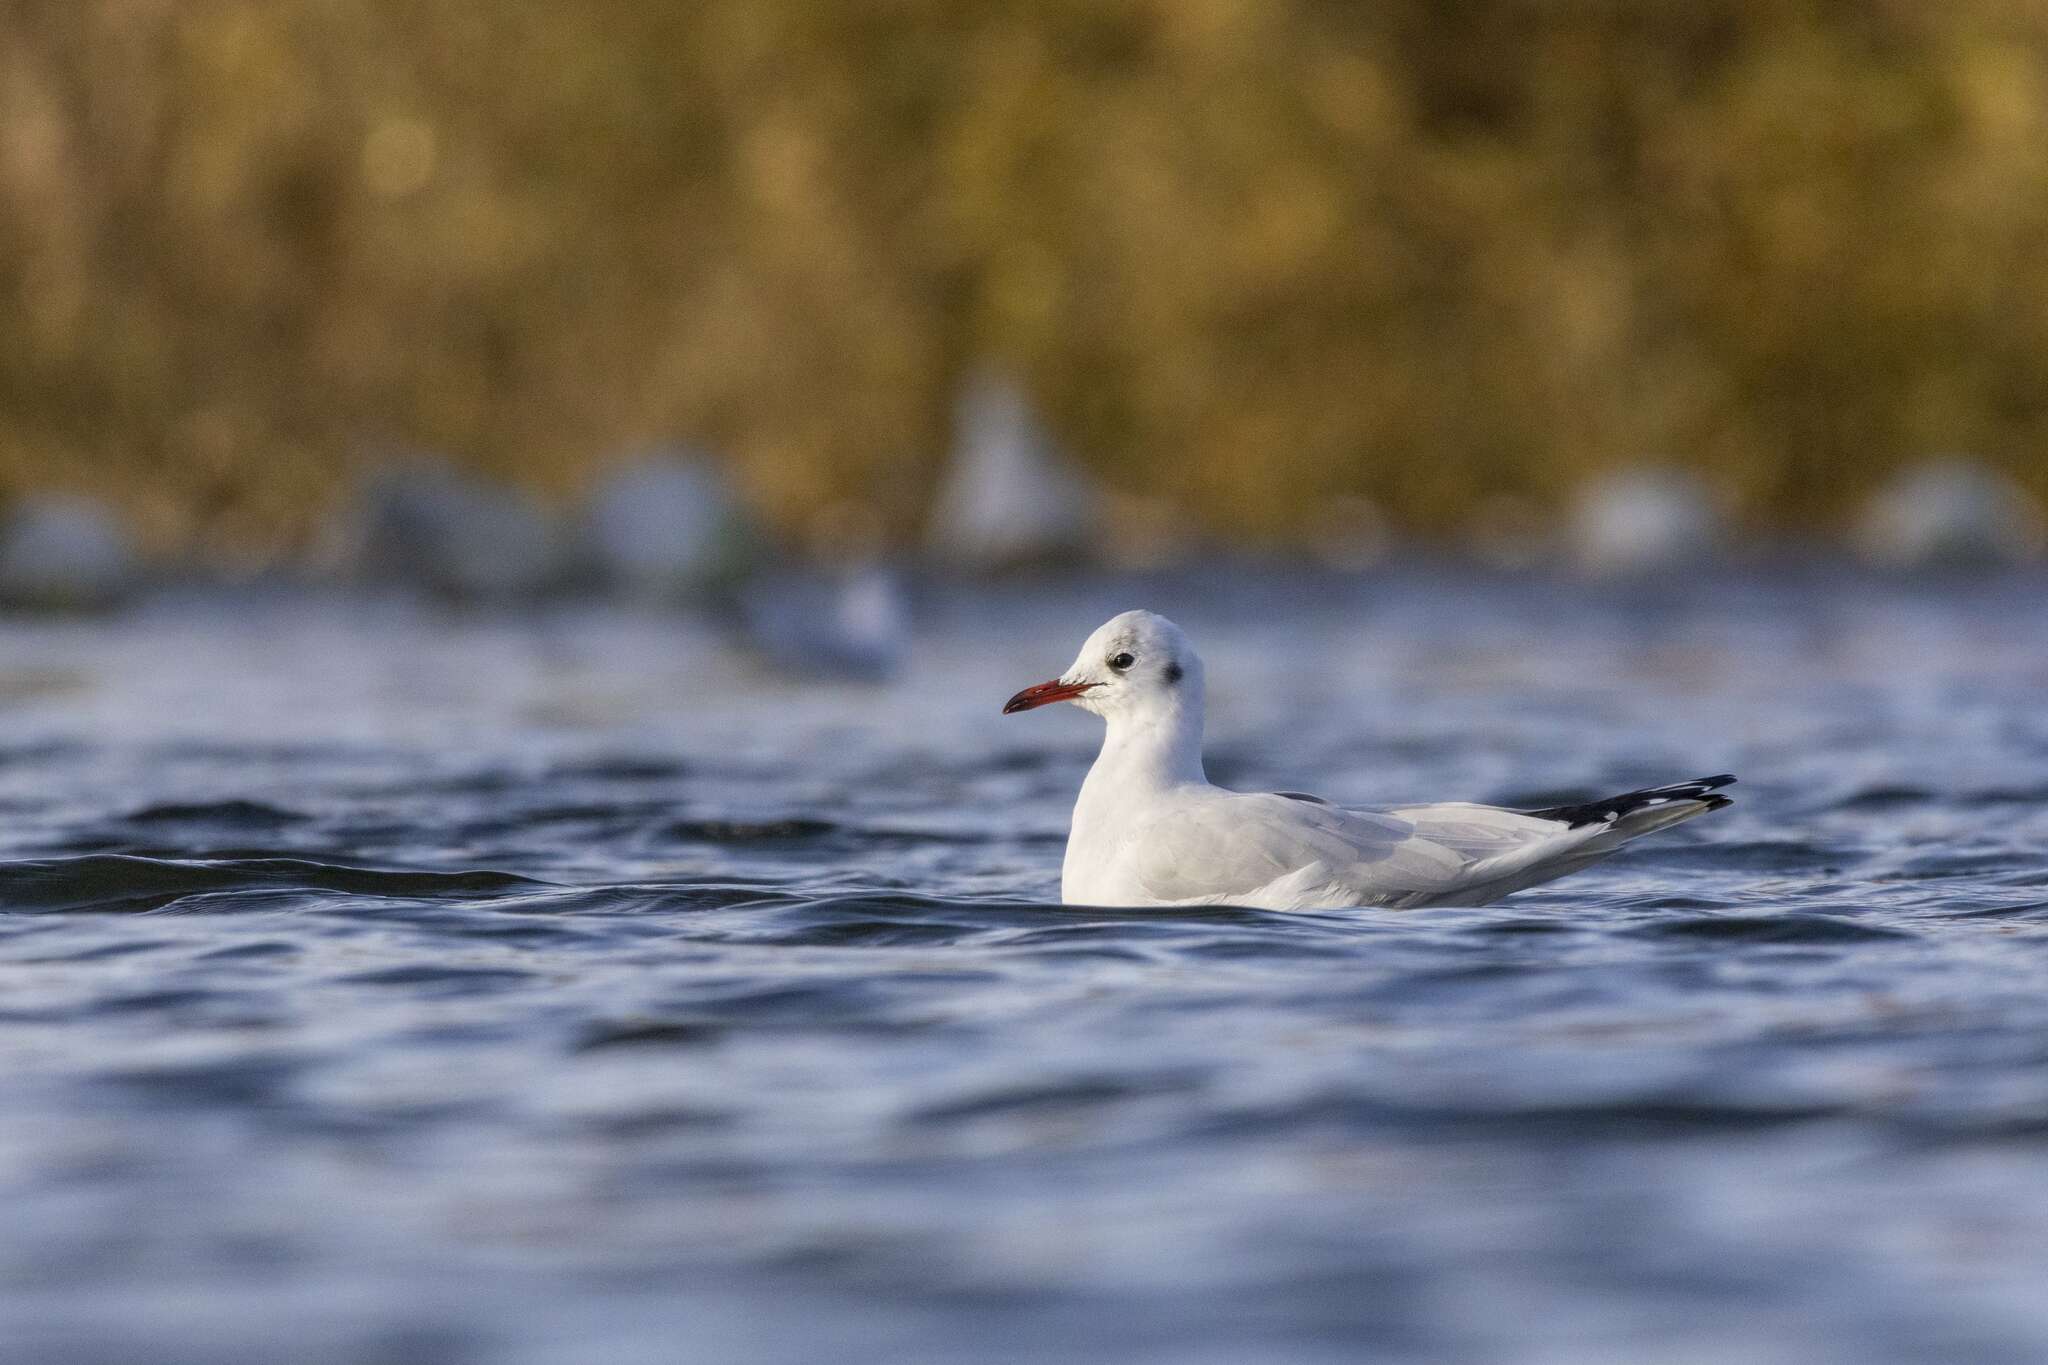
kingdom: Animalia
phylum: Chordata
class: Aves
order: Charadriiformes
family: Laridae
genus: Chroicocephalus
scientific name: Chroicocephalus ridibundus
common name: Black-headed gull
